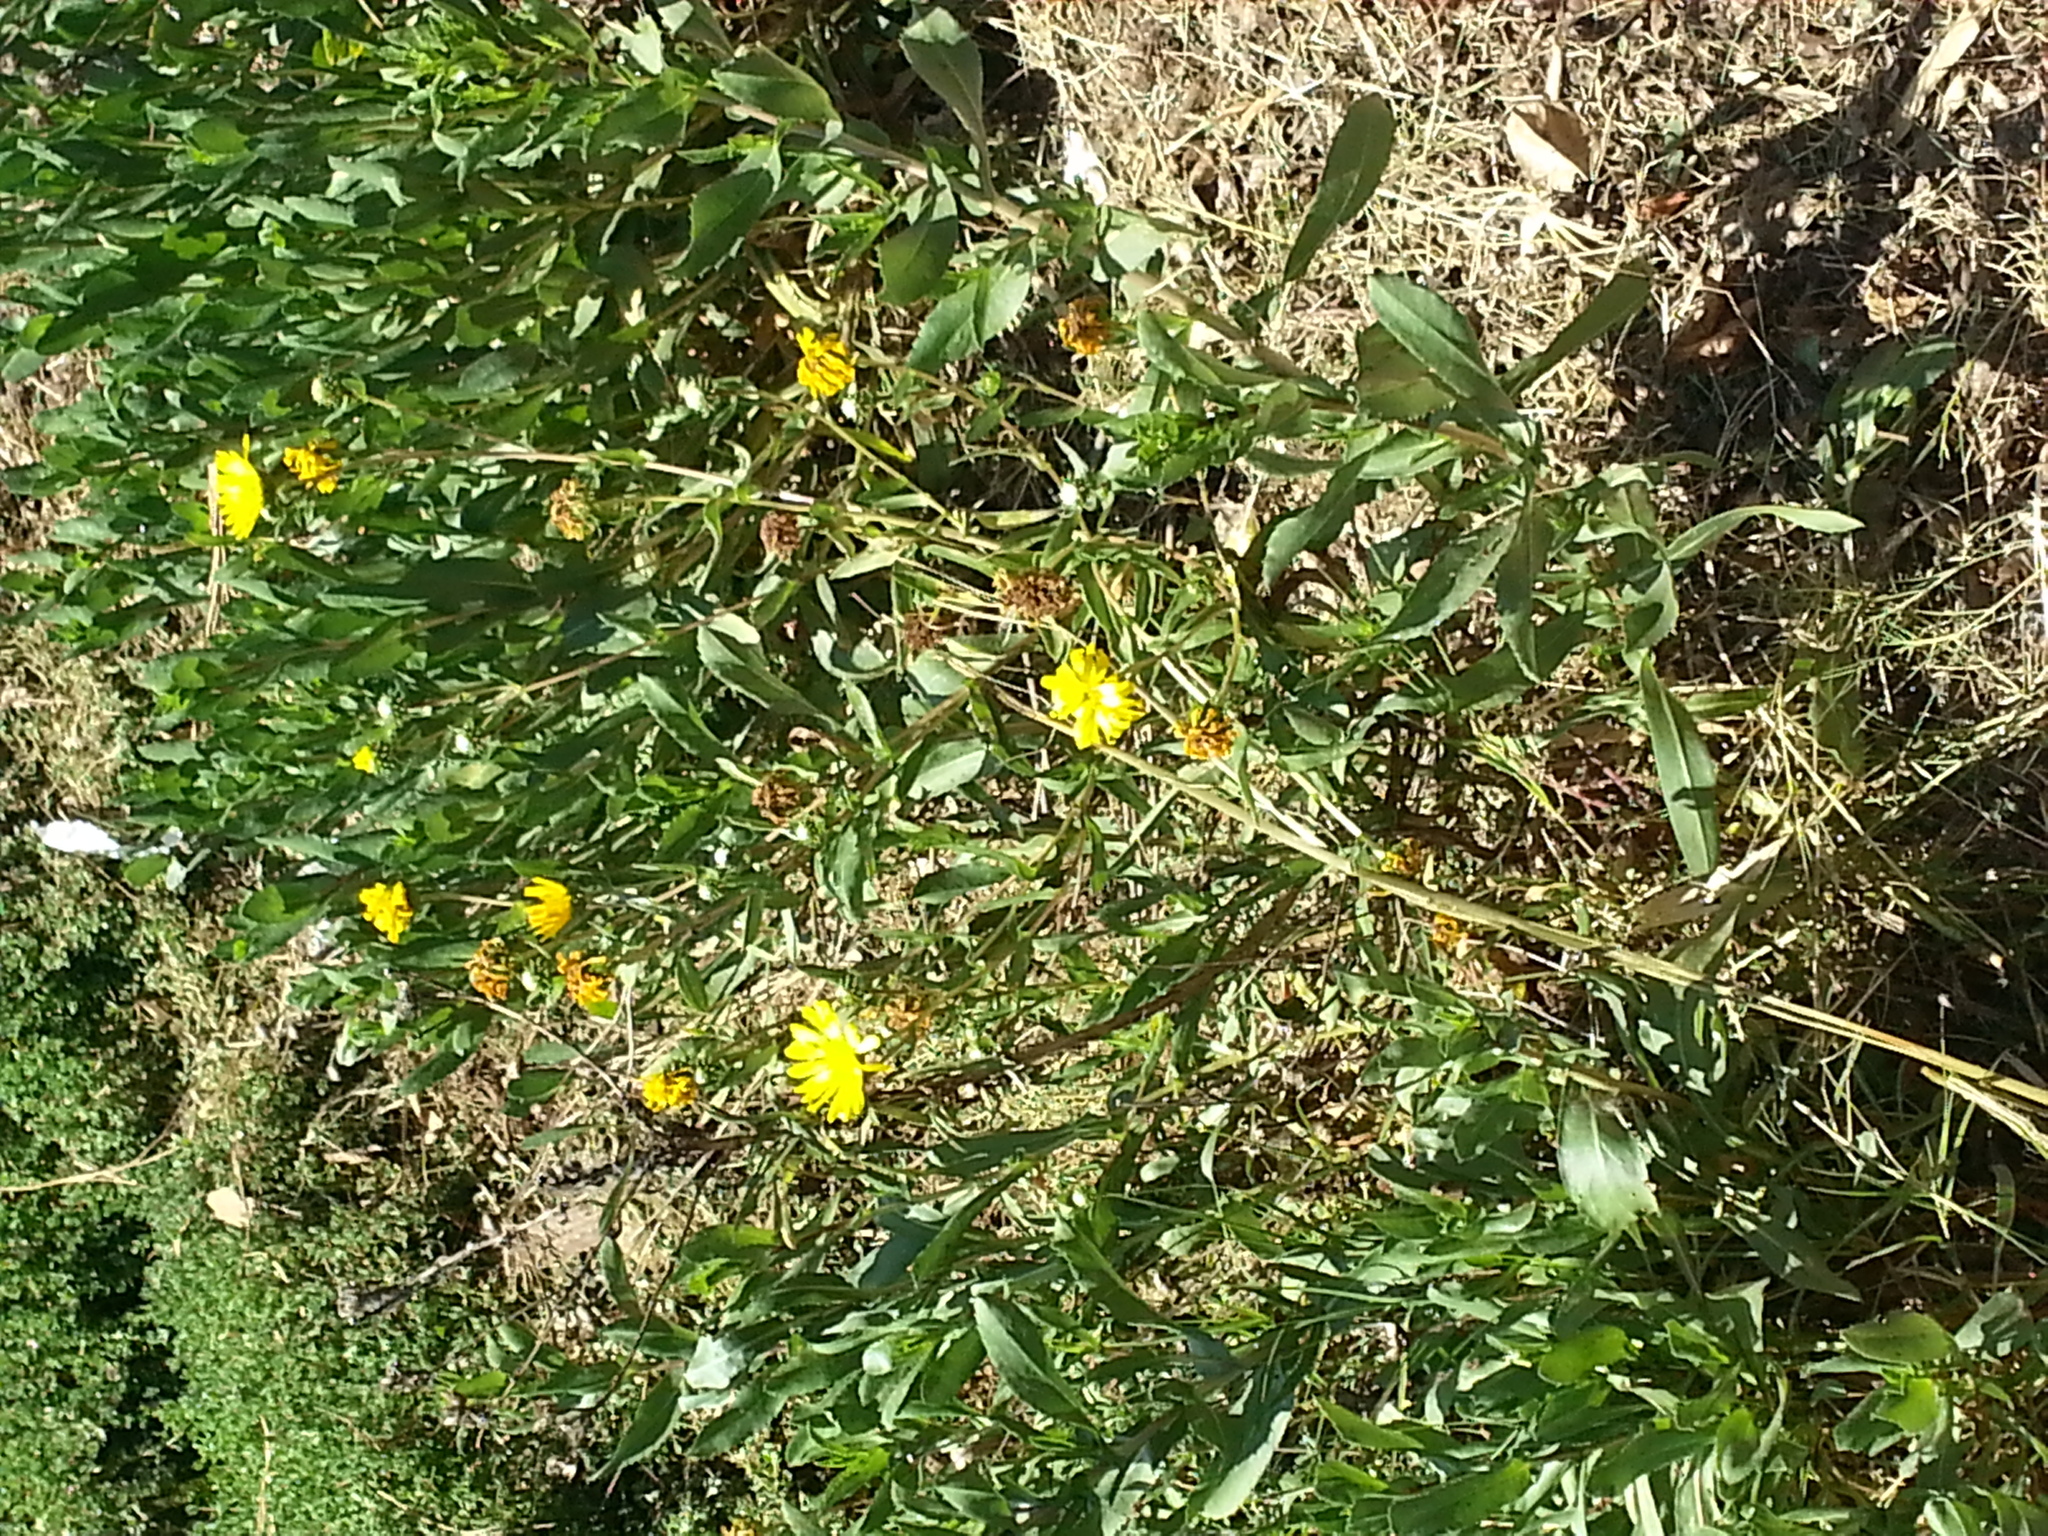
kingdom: Plantae
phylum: Tracheophyta
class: Magnoliopsida
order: Asterales
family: Asteraceae
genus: Grindelia
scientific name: Grindelia hirsutula
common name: Hairy gumweed
